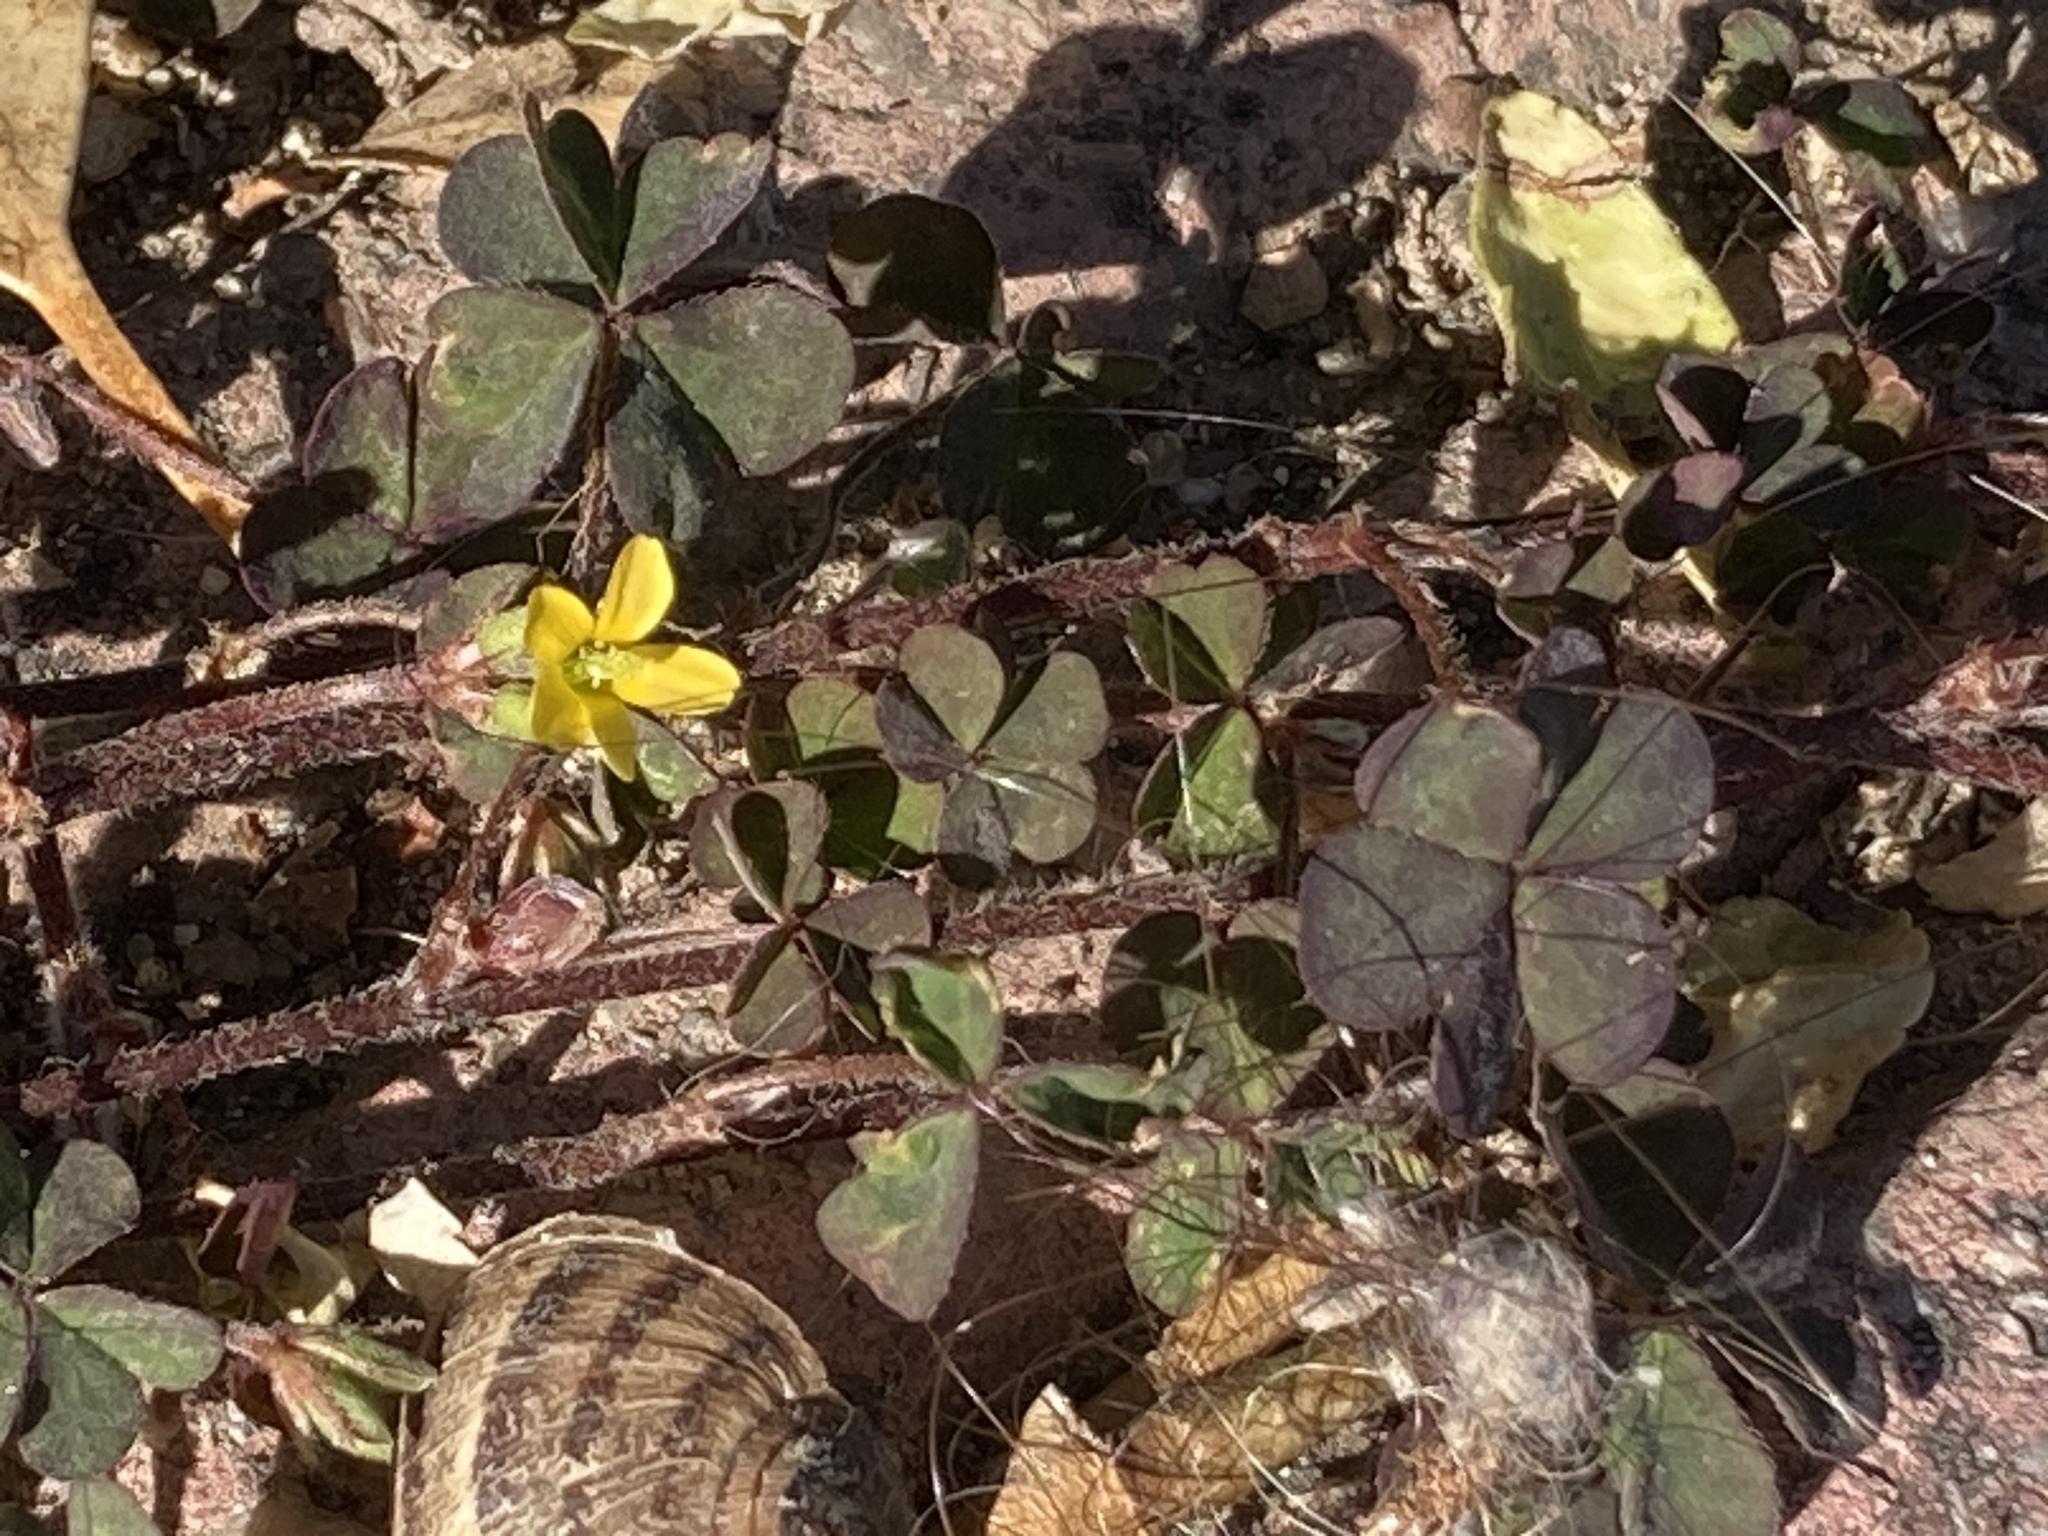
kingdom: Plantae
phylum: Tracheophyta
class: Magnoliopsida
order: Oxalidales
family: Oxalidaceae
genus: Oxalis
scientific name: Oxalis corniculata
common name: Procumbent yellow-sorrel
